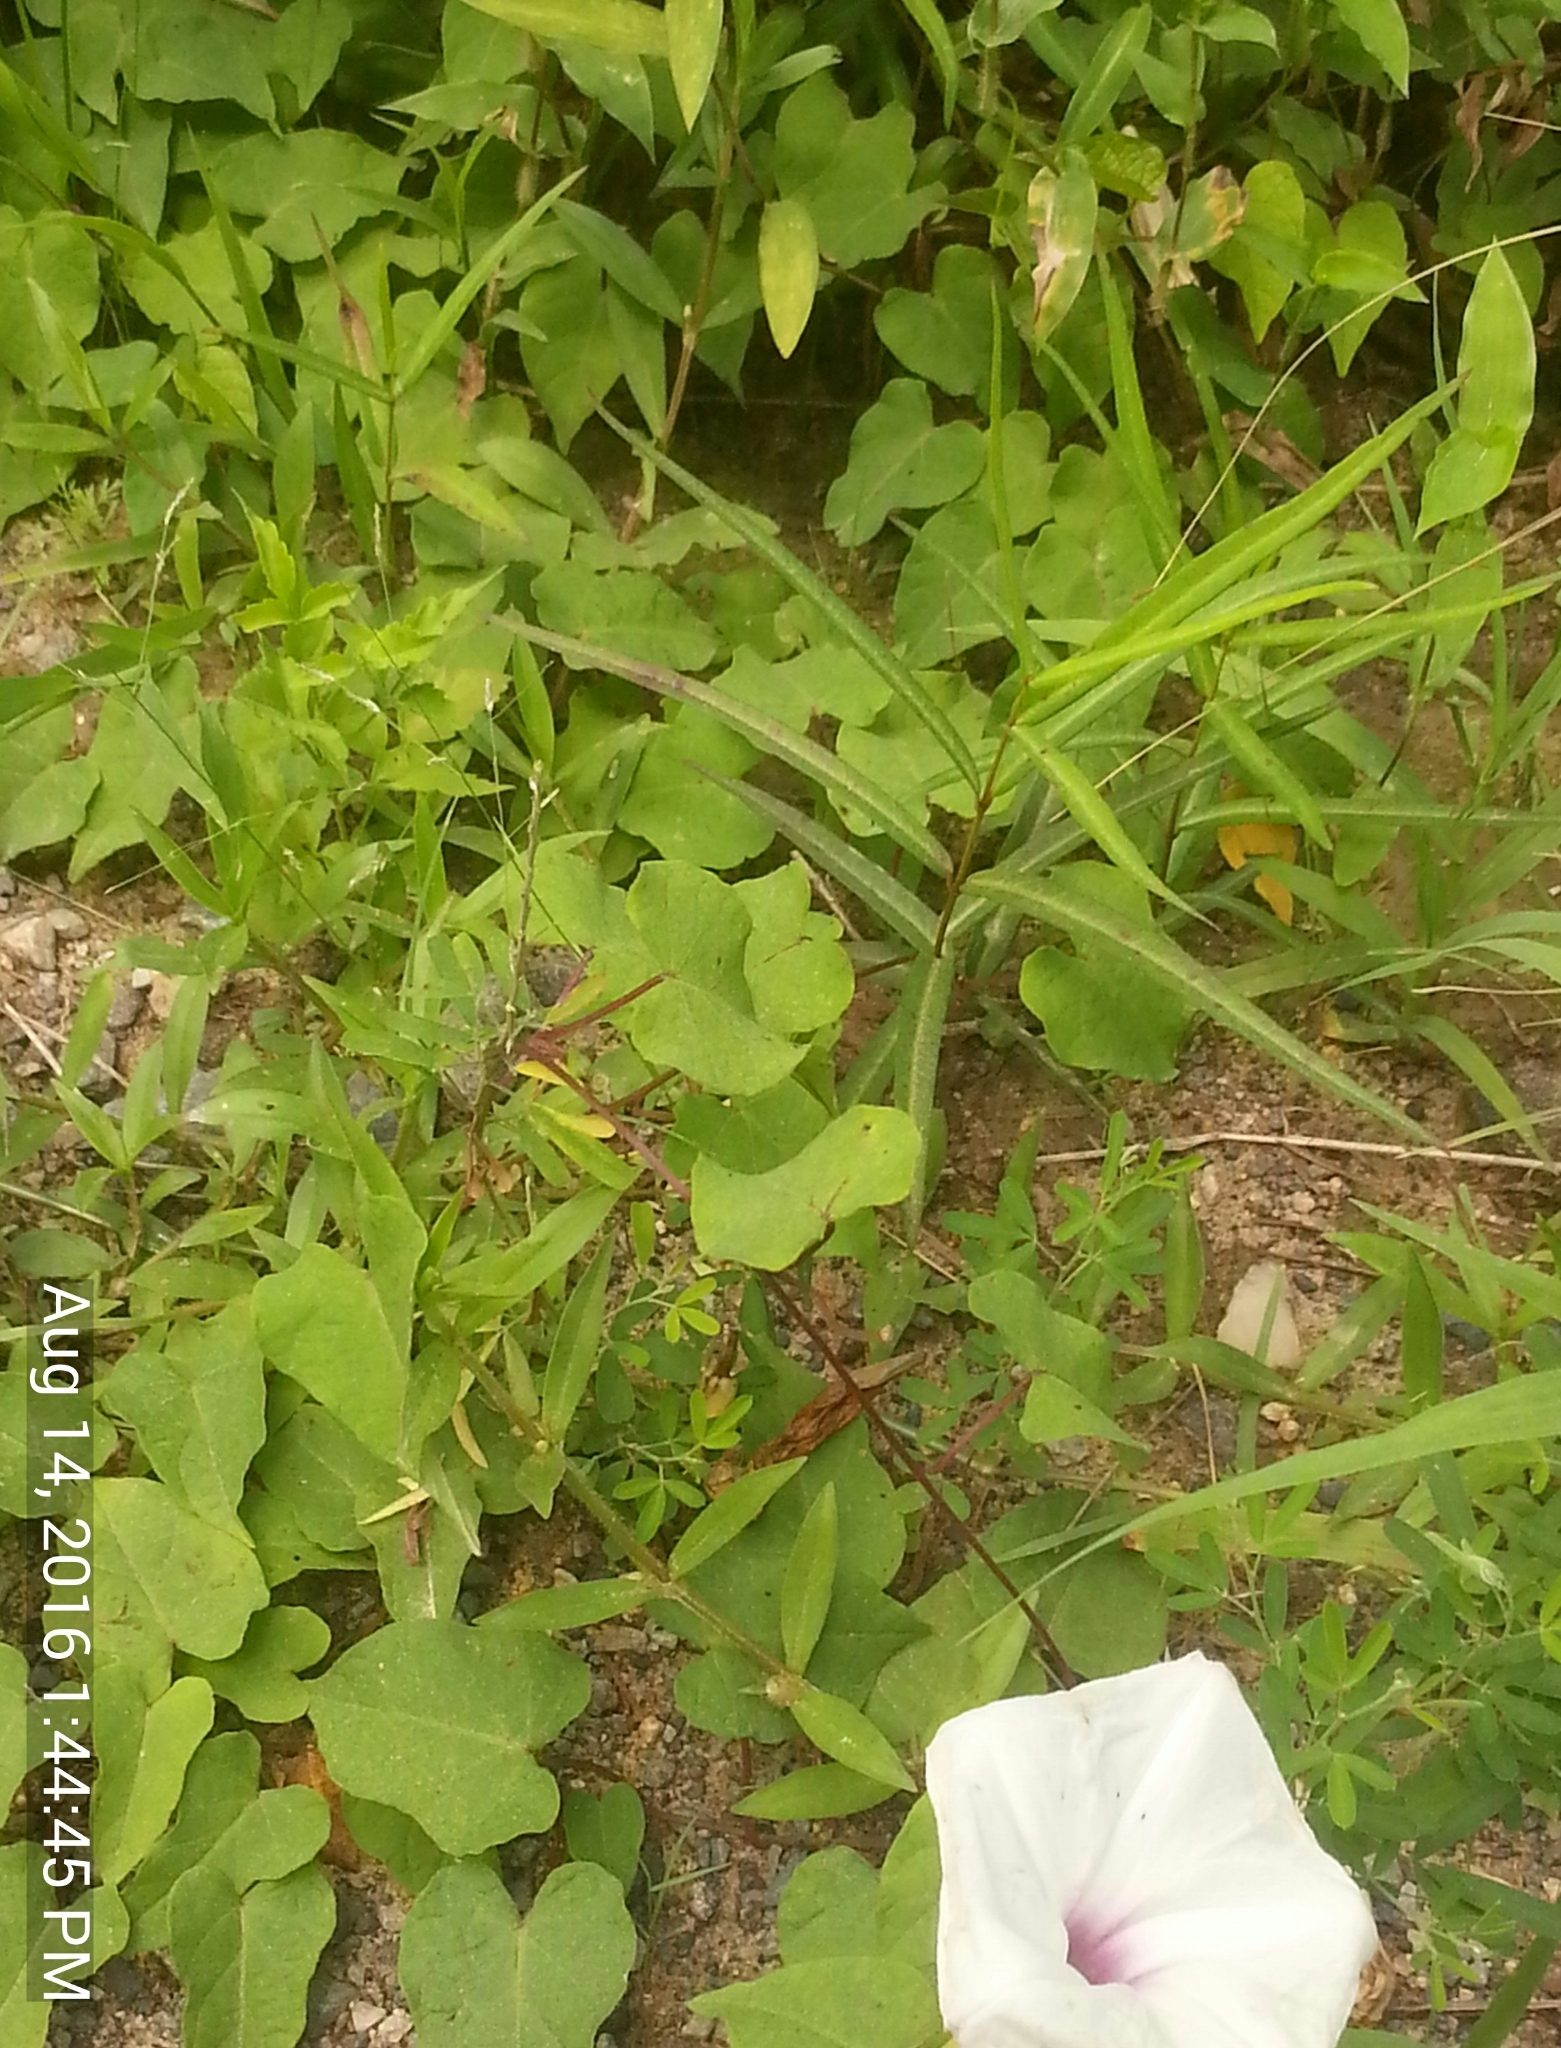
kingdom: Plantae
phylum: Tracheophyta
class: Magnoliopsida
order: Solanales
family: Convolvulaceae
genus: Ipomoea
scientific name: Ipomoea pandurata
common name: Man-of-the-earth
